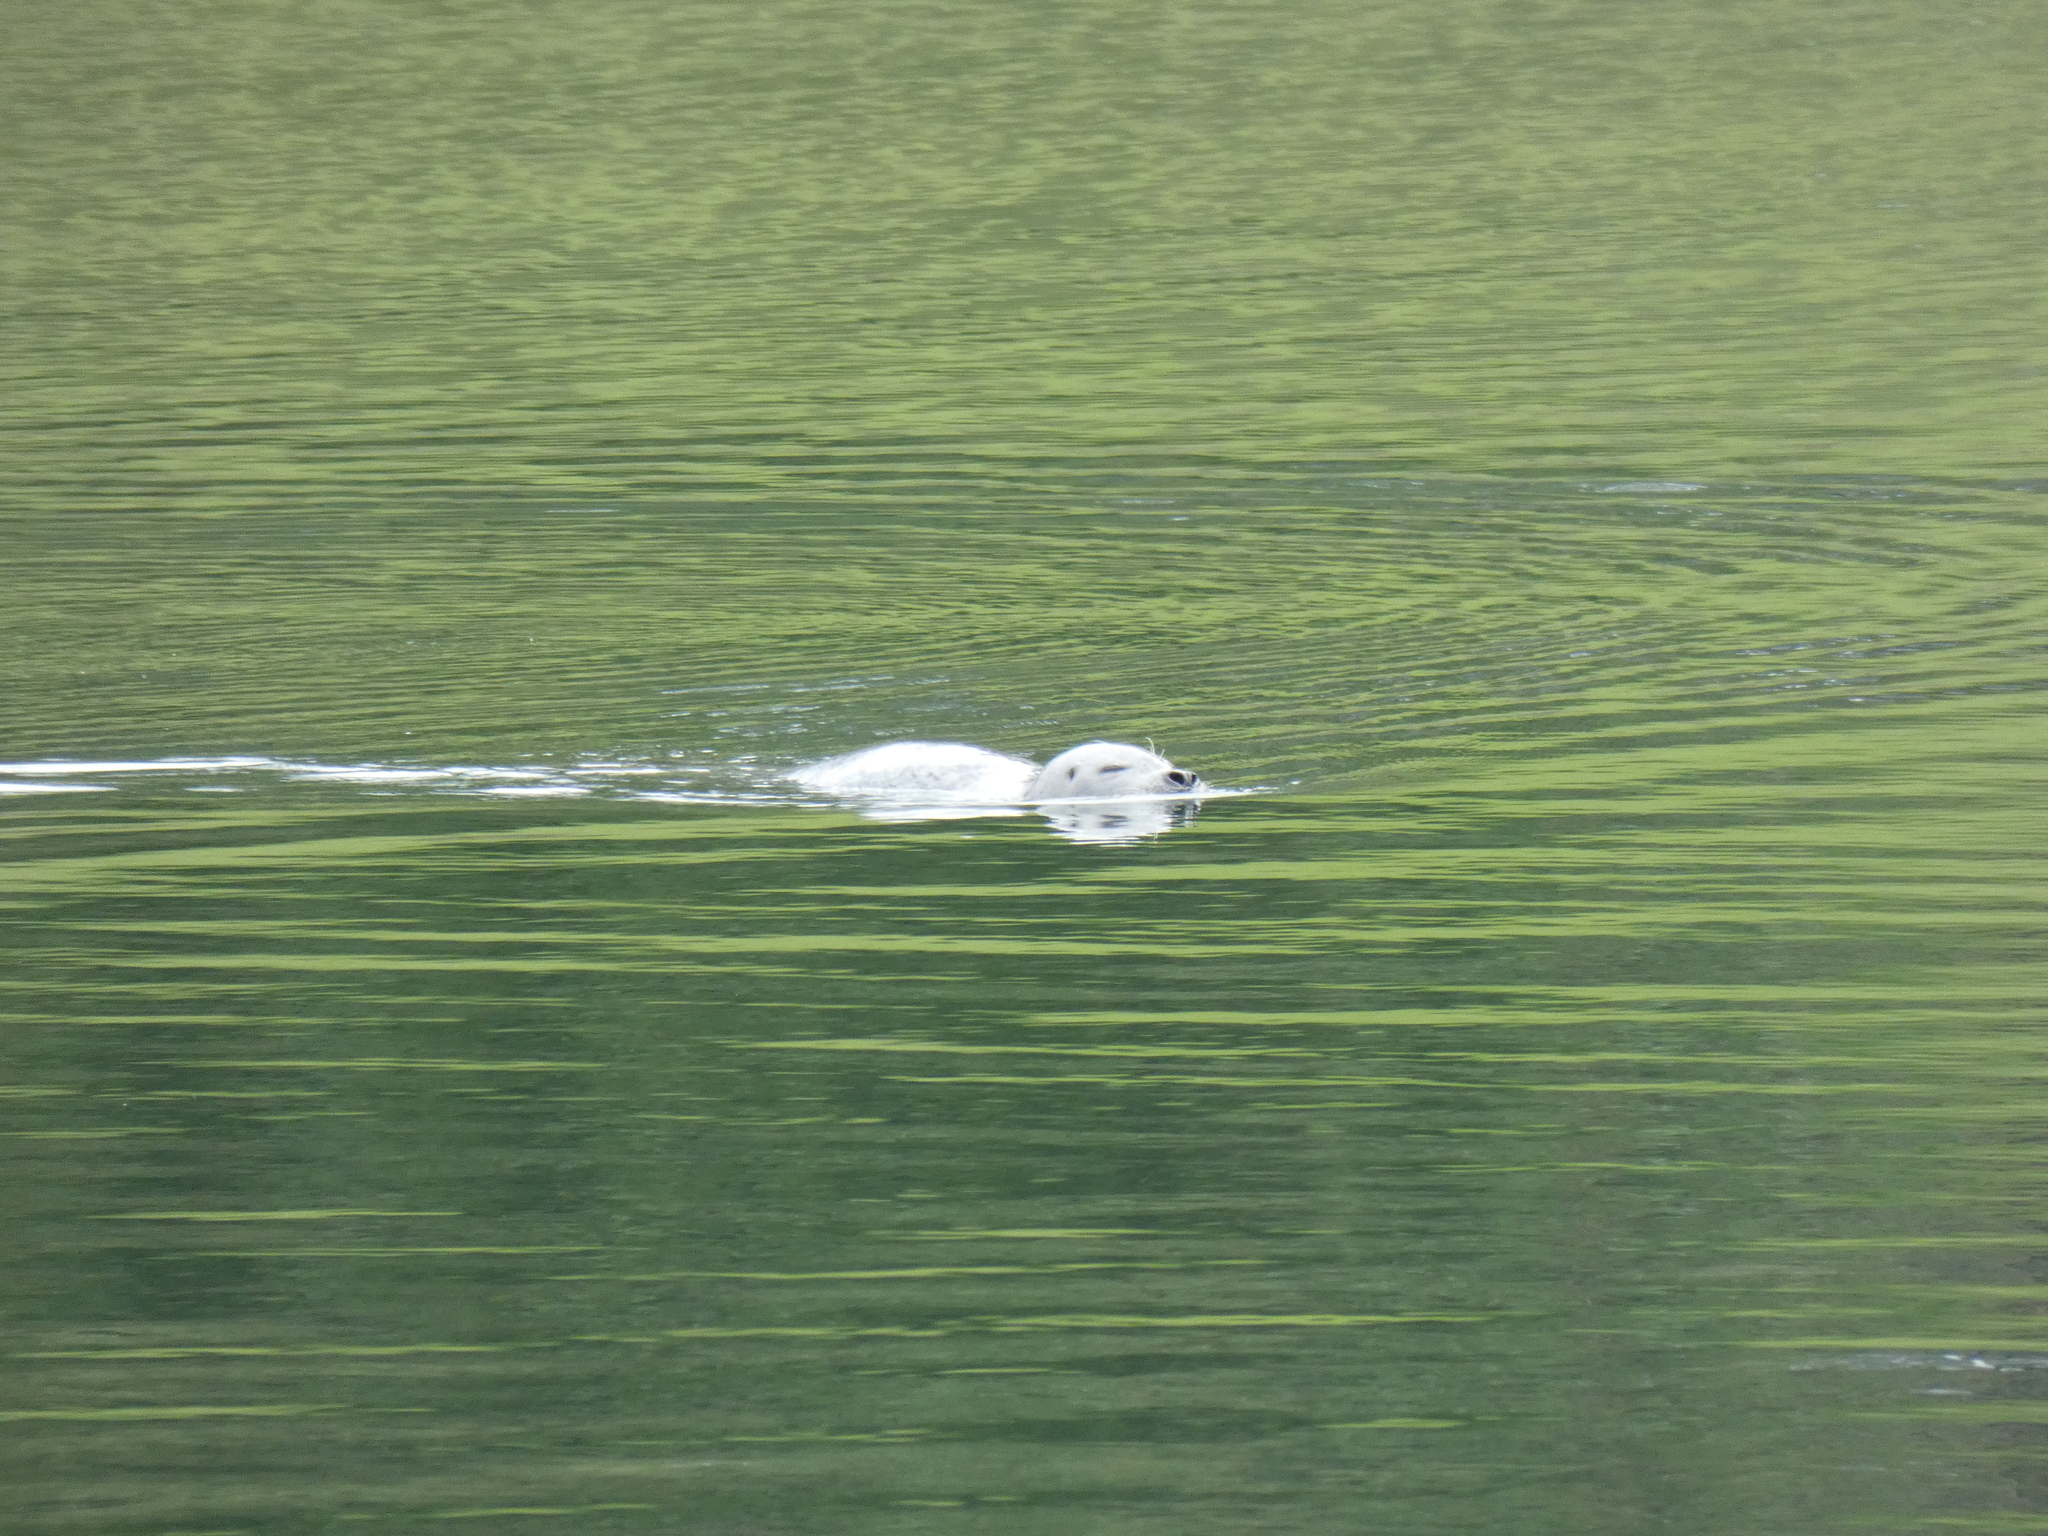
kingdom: Animalia
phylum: Chordata
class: Mammalia
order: Carnivora
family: Phocidae
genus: Phoca
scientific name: Phoca vitulina
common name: Harbor seal
